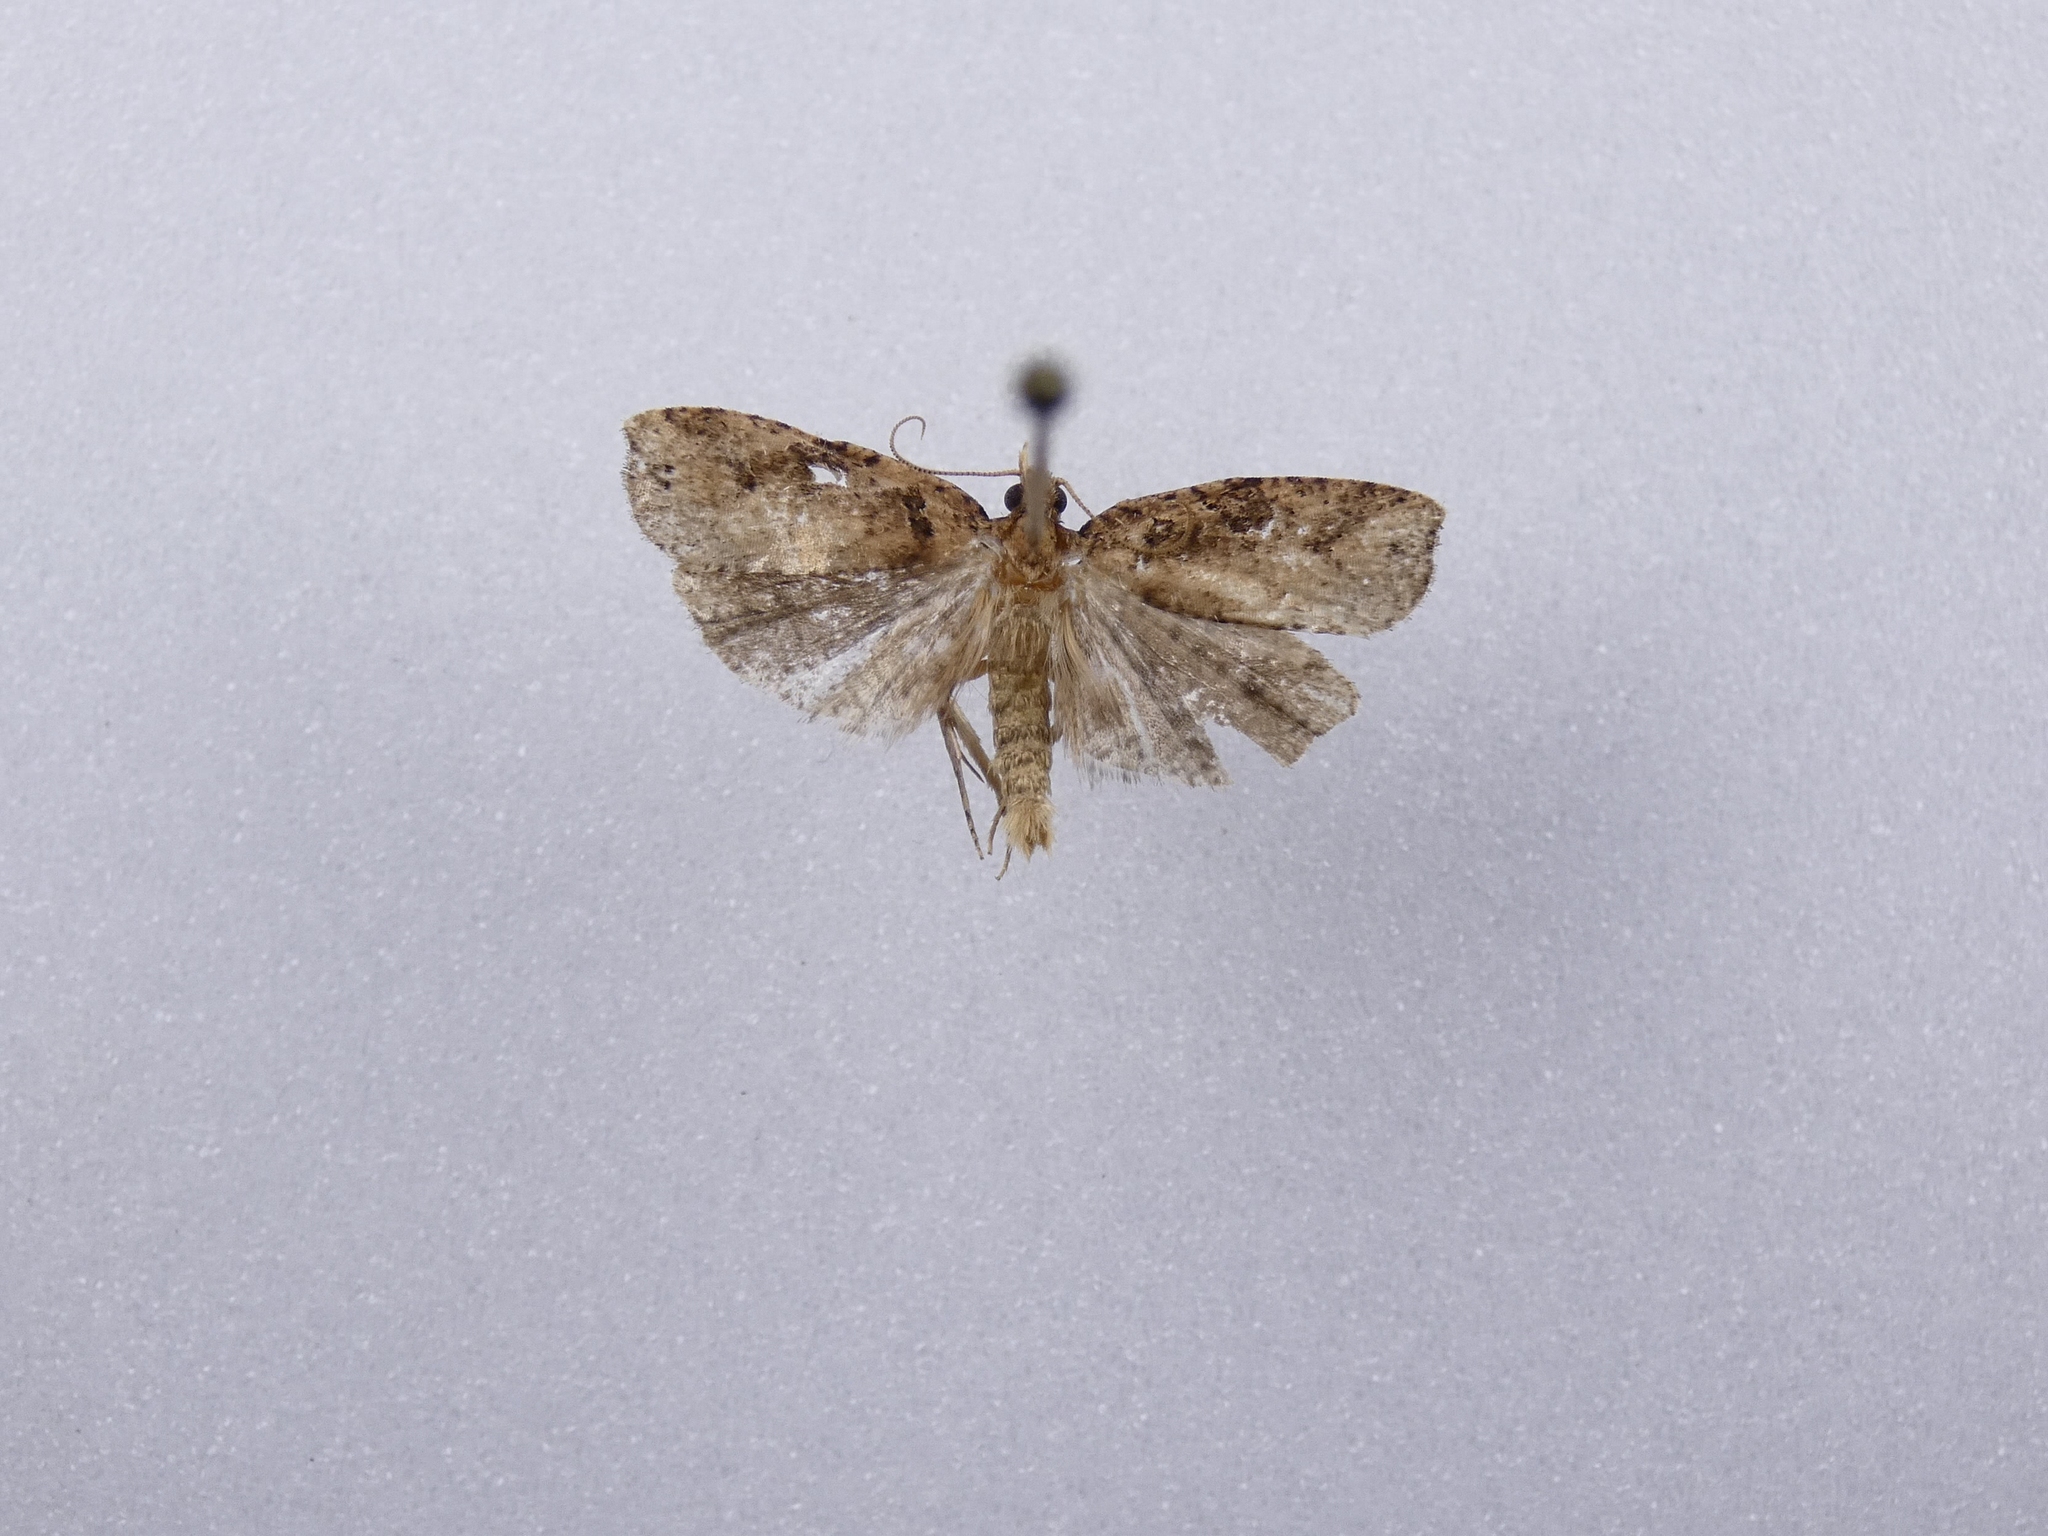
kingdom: Animalia
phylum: Arthropoda
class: Insecta
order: Lepidoptera
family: Tortricidae
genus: Ctenopseustis
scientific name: Ctenopseustis obliquana
